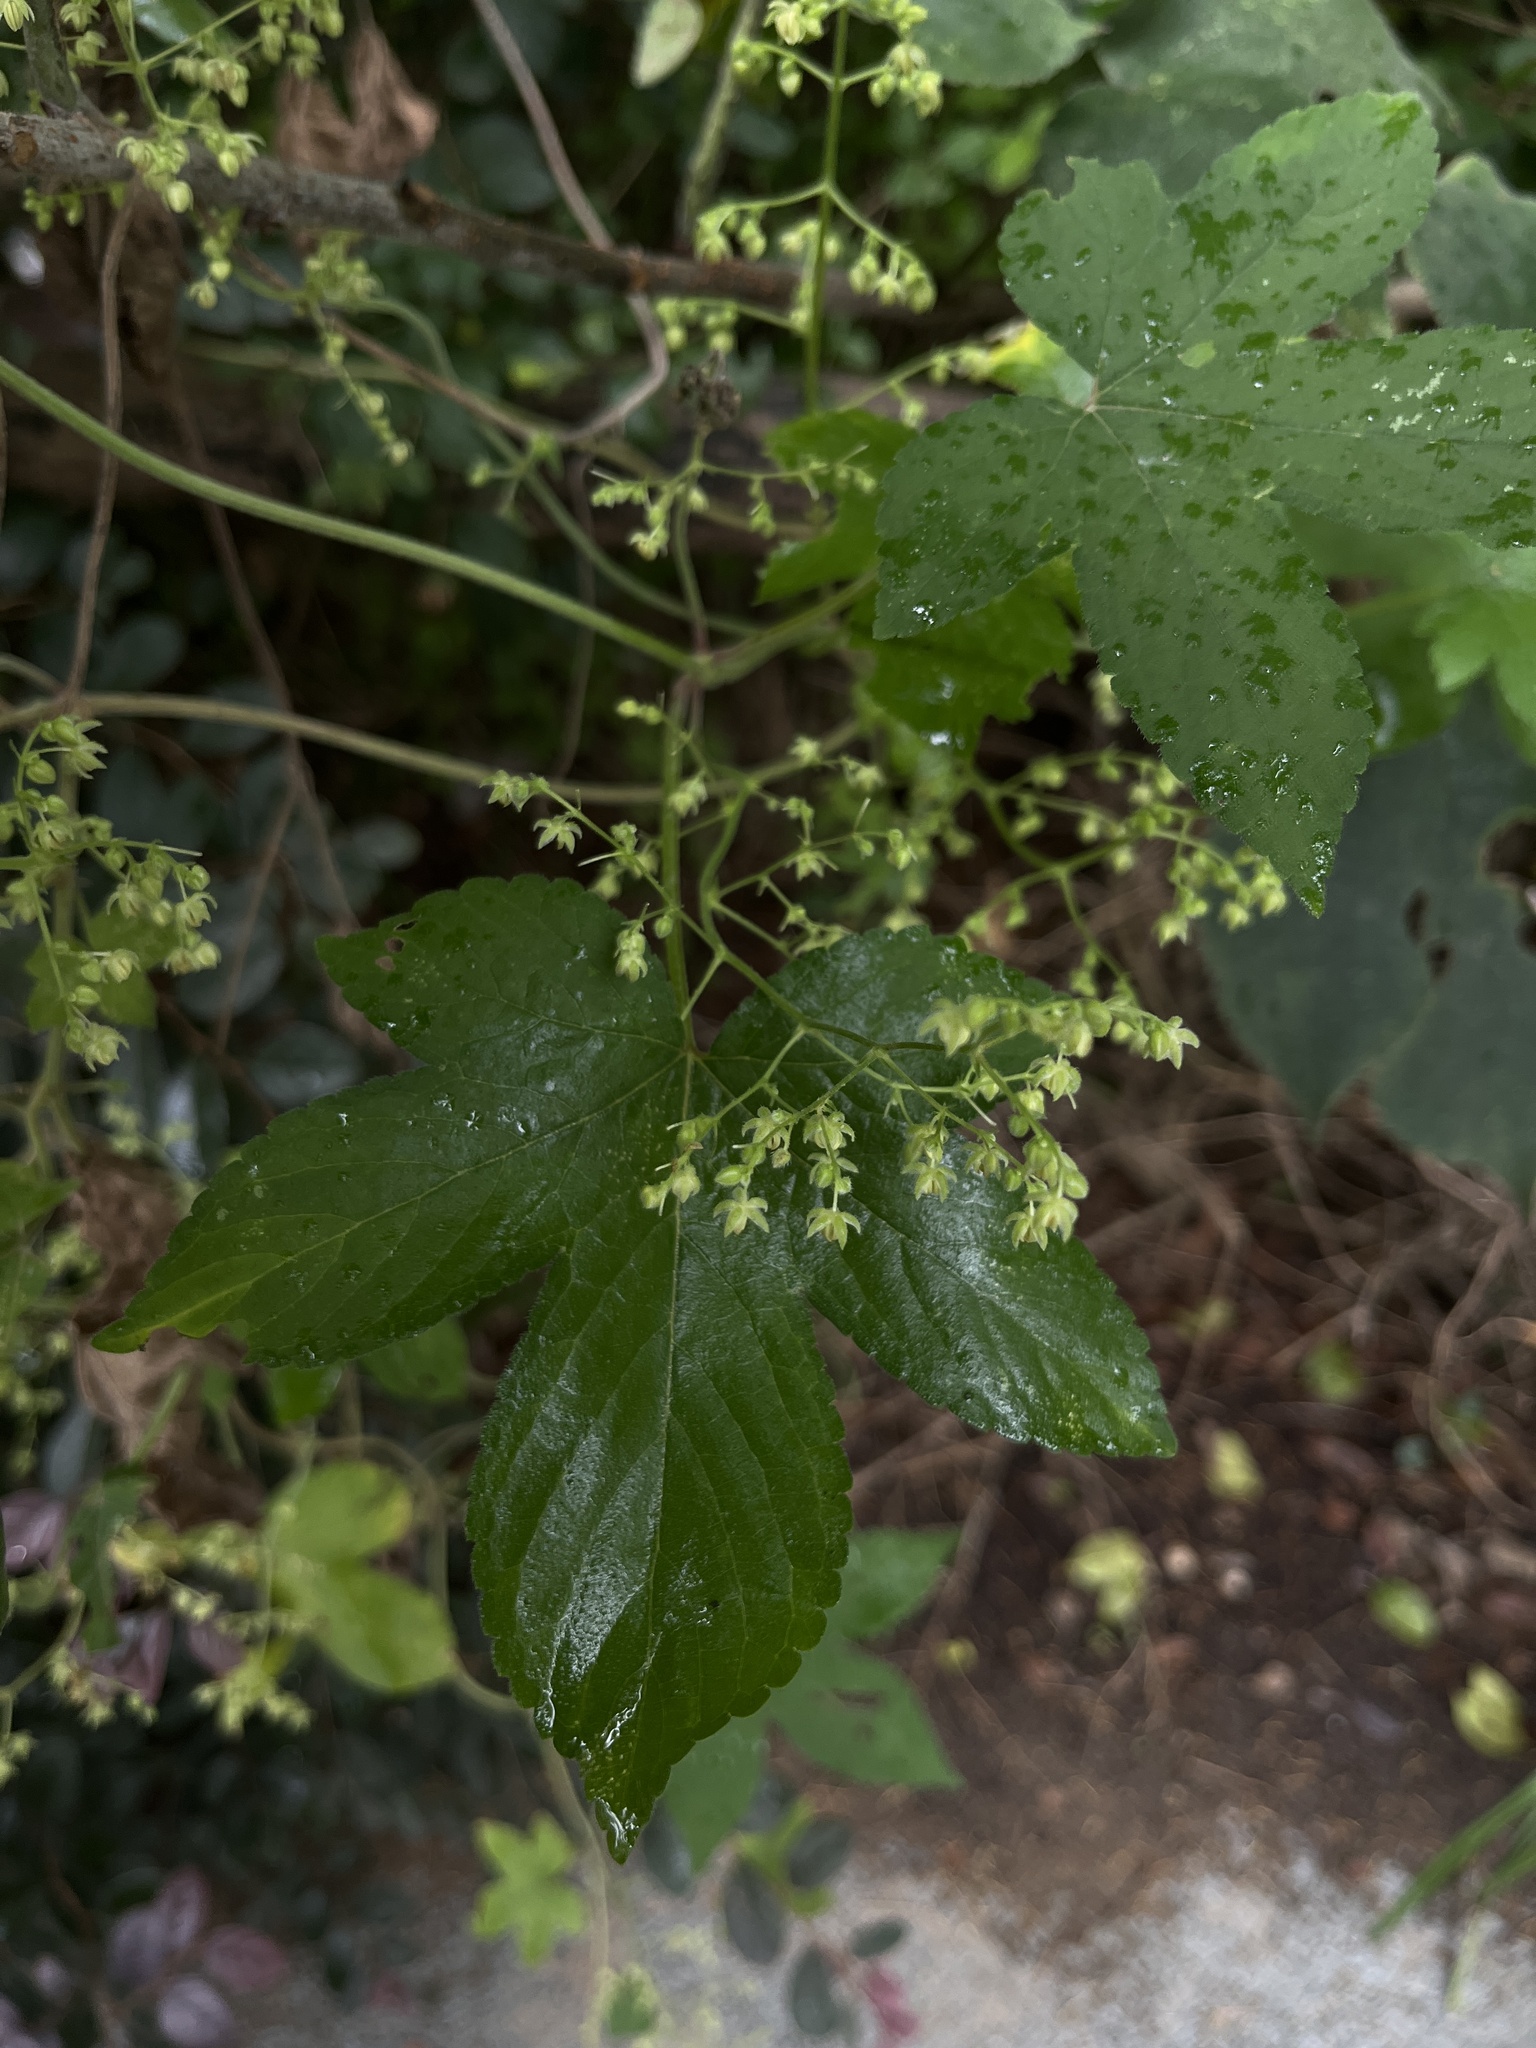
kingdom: Plantae
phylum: Tracheophyta
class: Magnoliopsida
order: Rosales
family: Cannabaceae
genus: Humulus
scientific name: Humulus scandens
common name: Japanese hop
